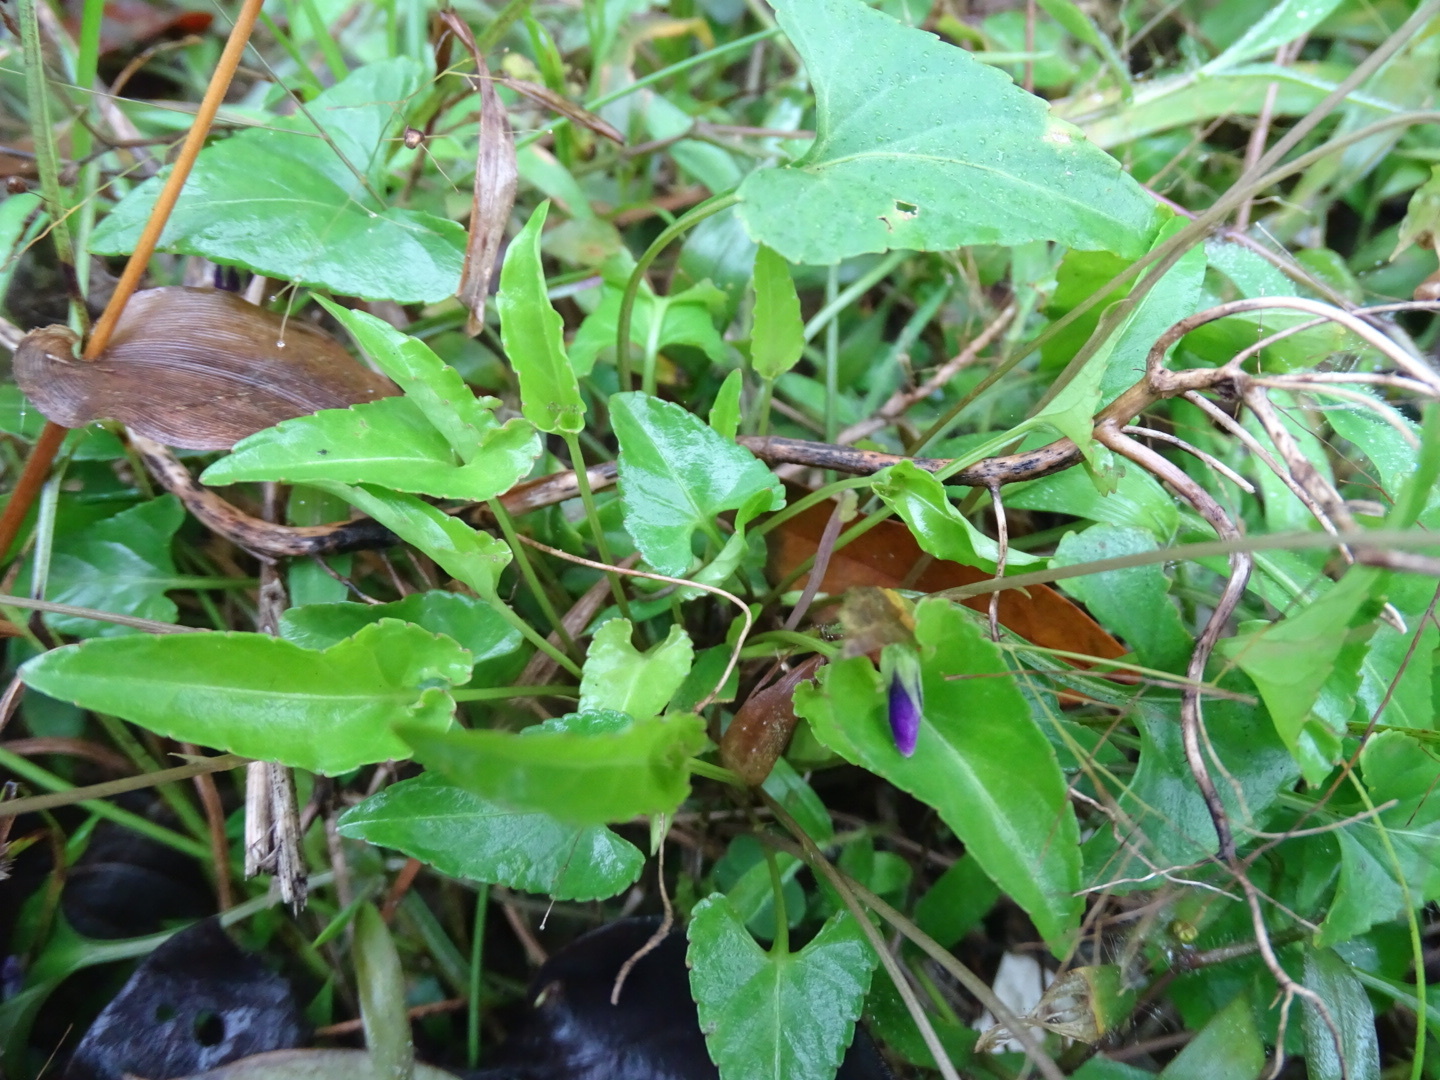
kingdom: Plantae
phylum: Tracheophyta
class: Magnoliopsida
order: Malpighiales
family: Violaceae
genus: Viola
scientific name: Viola betonicifolia
